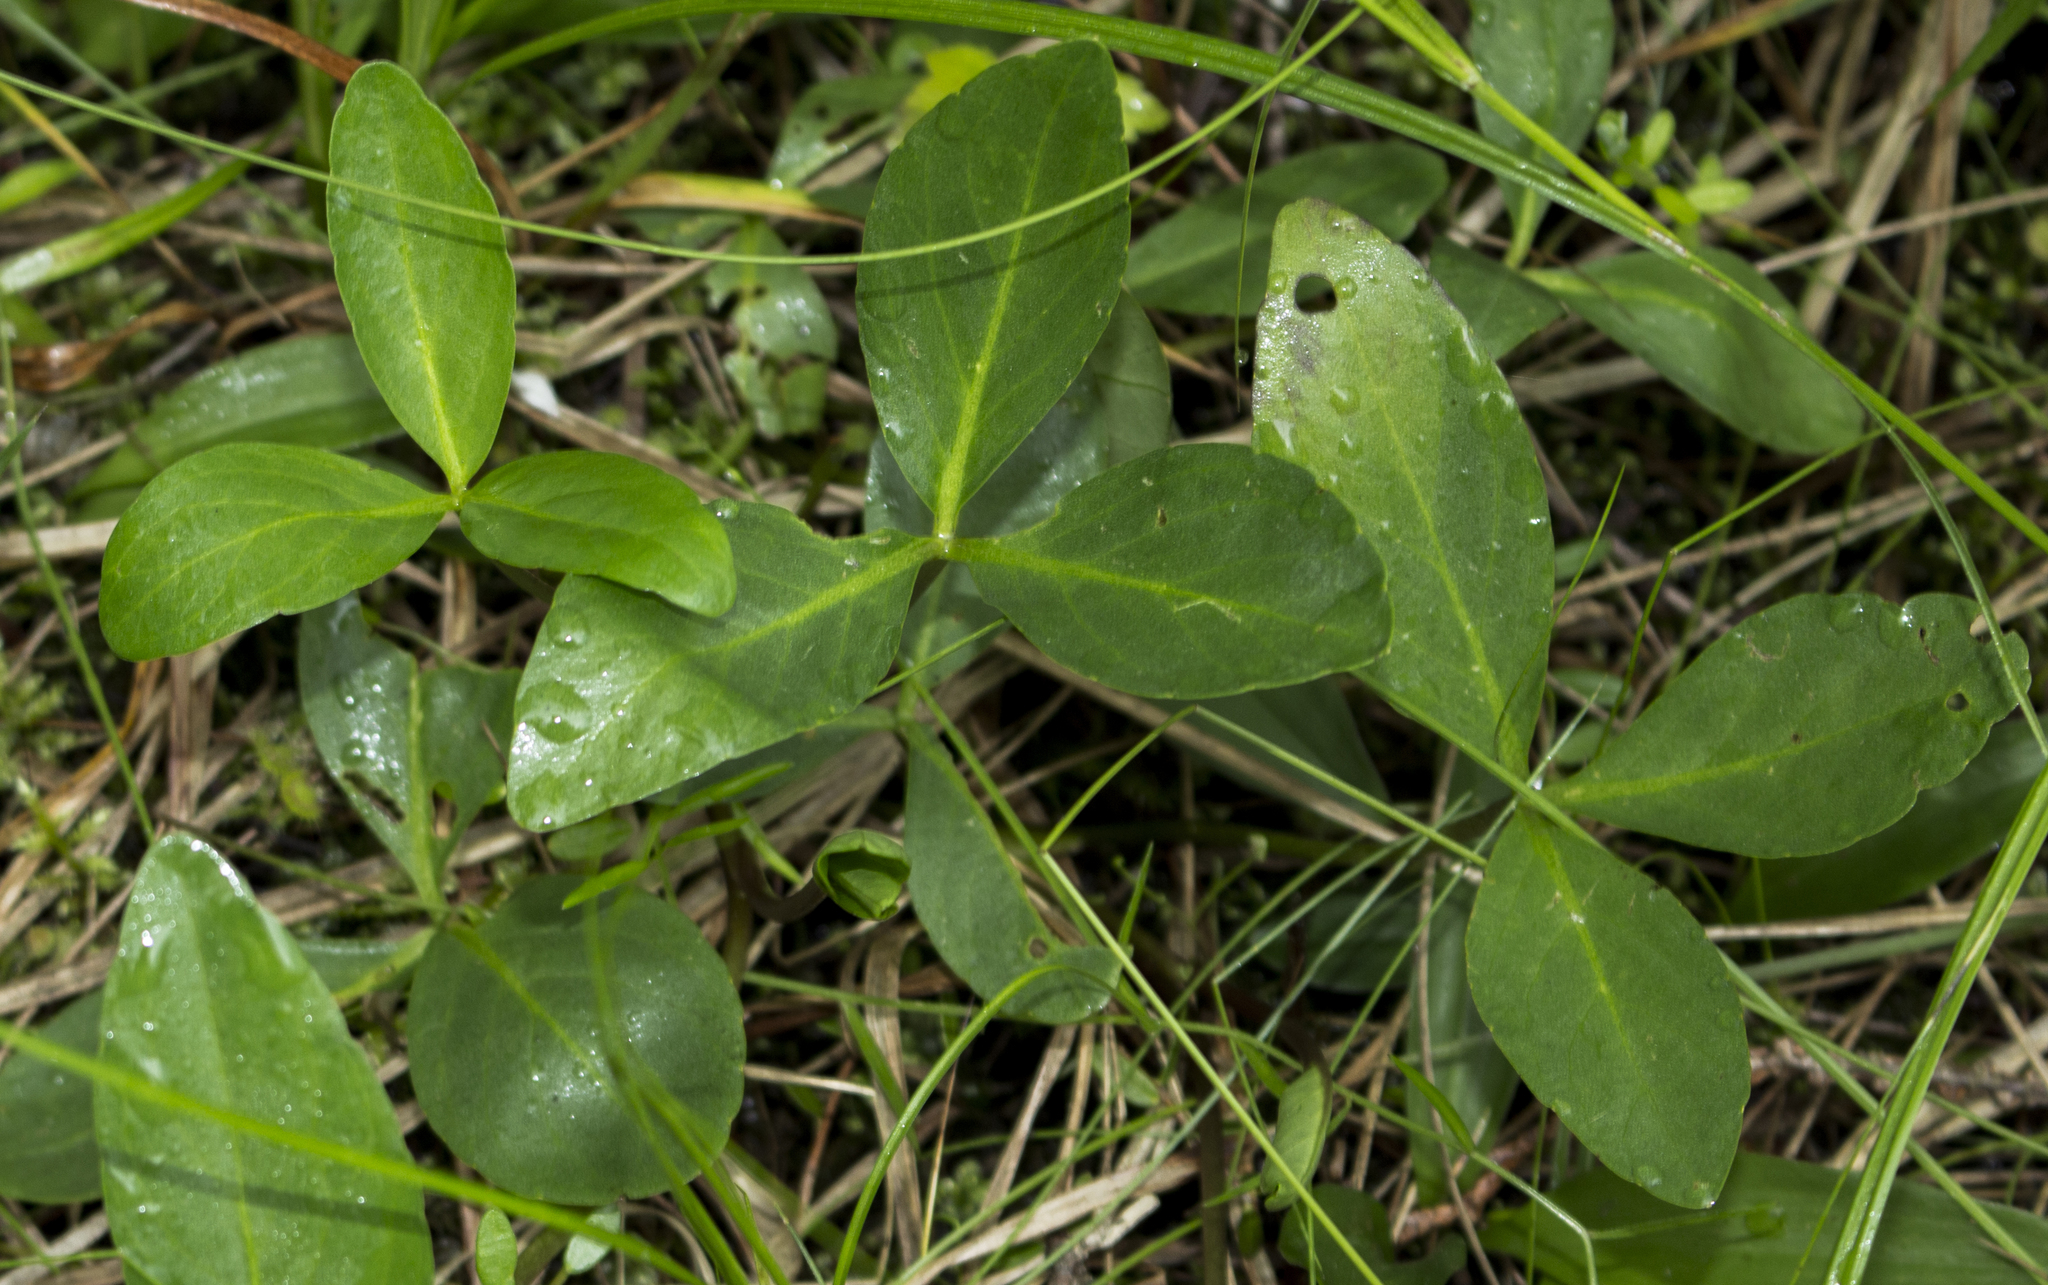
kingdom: Plantae
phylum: Tracheophyta
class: Magnoliopsida
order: Asterales
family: Menyanthaceae
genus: Menyanthes
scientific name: Menyanthes trifoliata
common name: Bogbean
